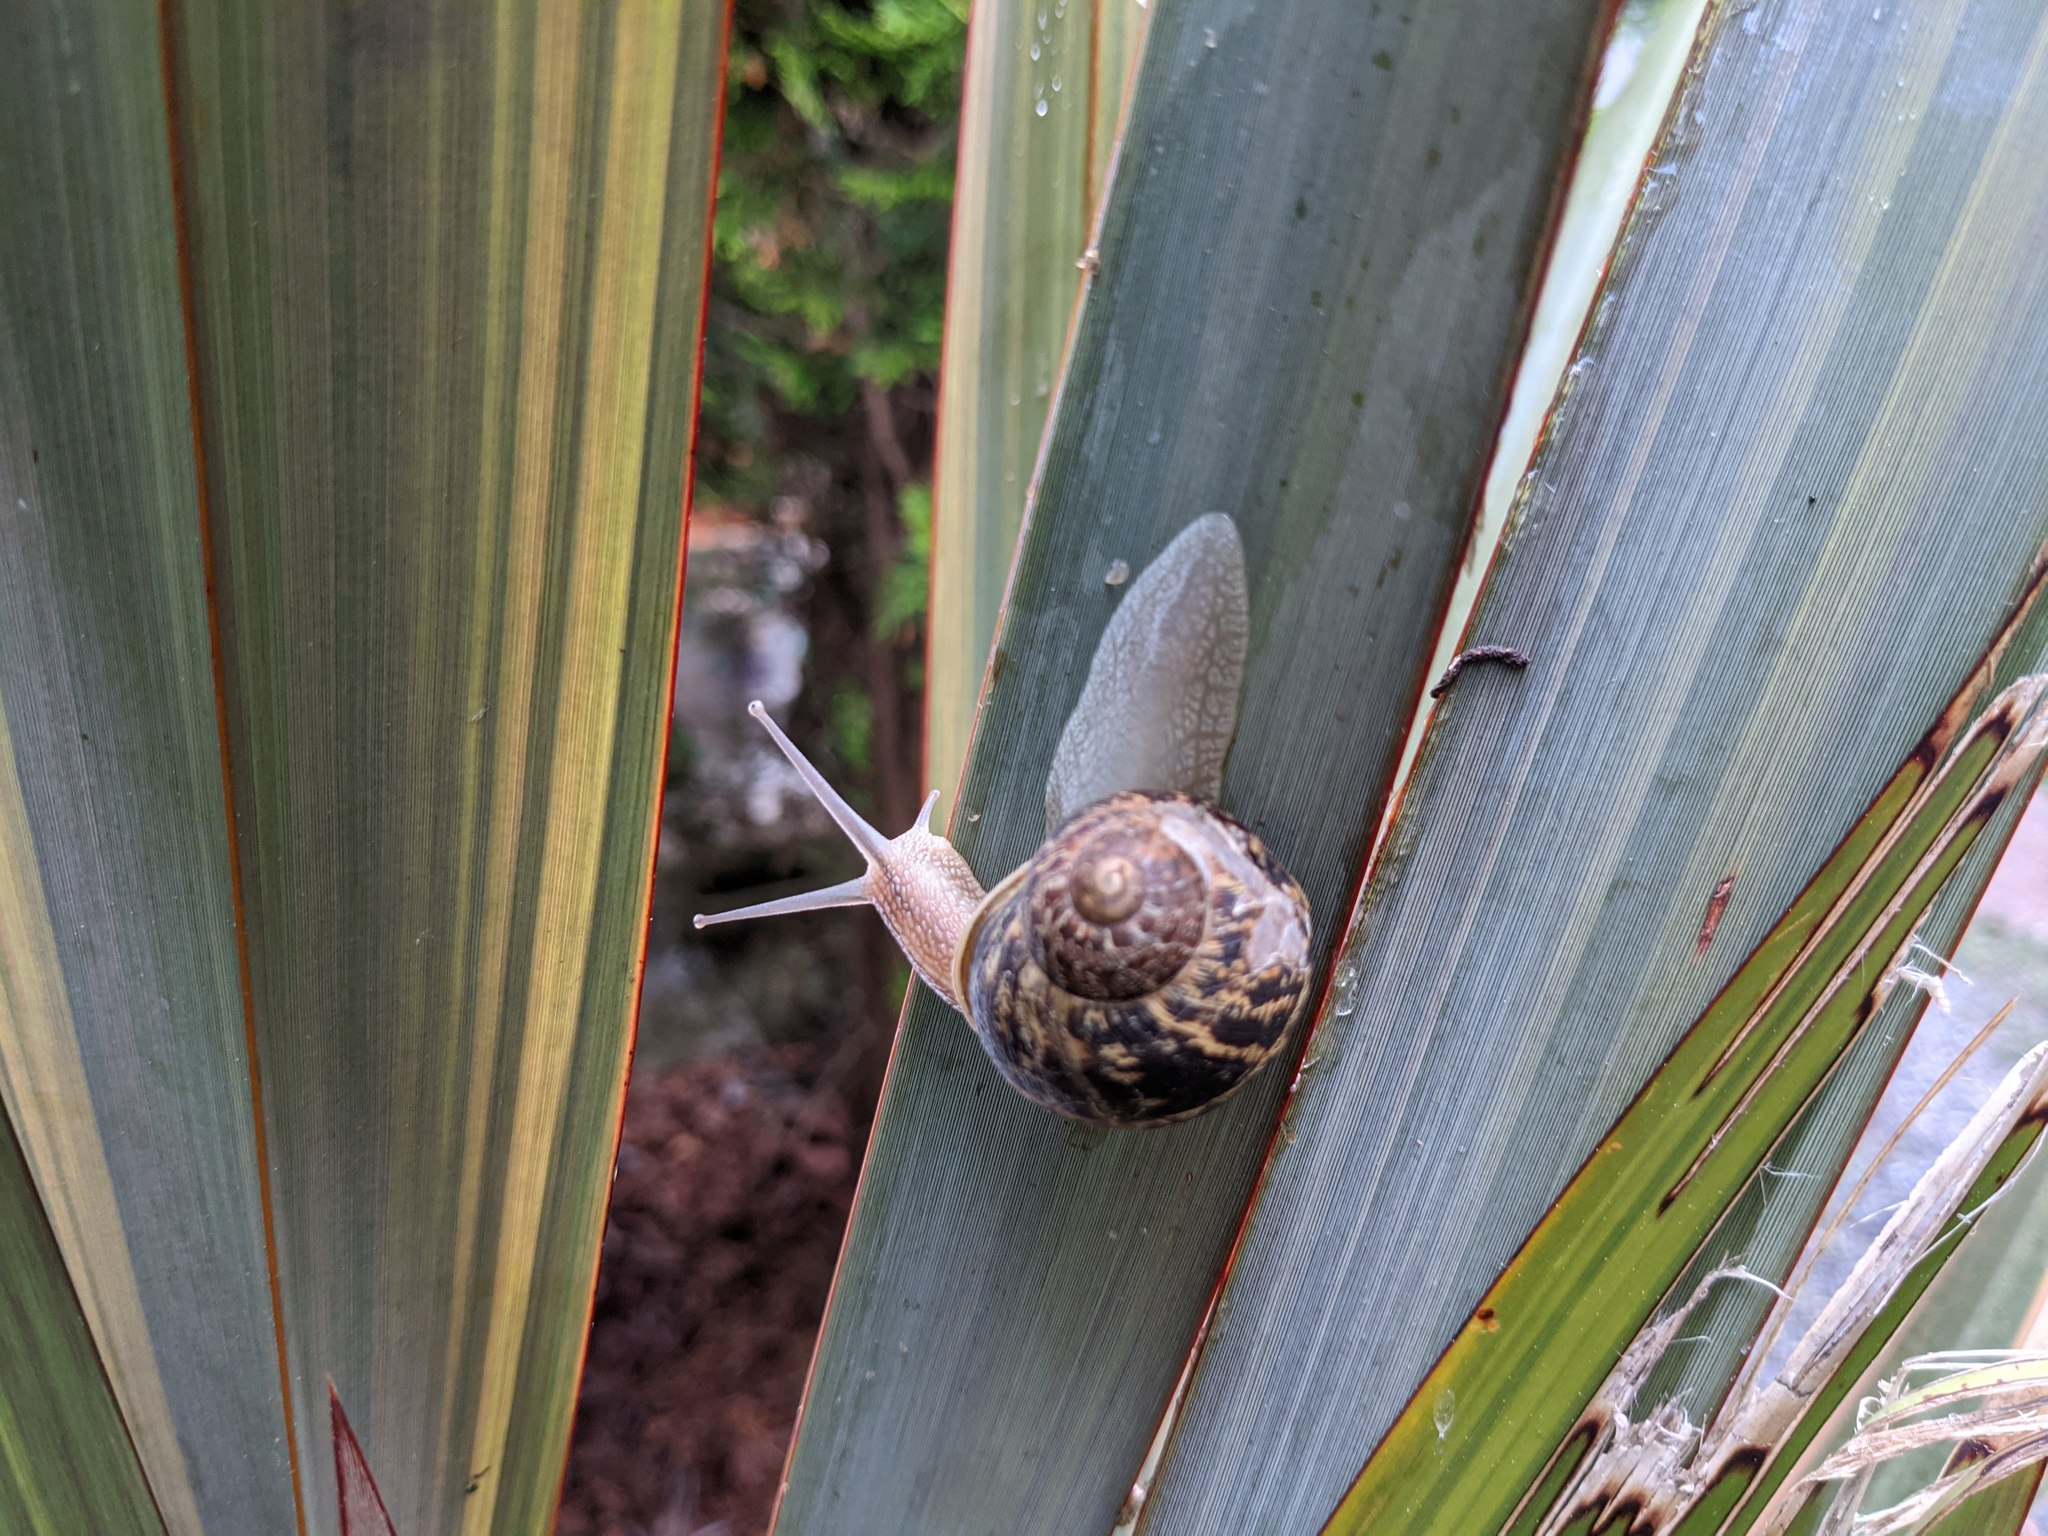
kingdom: Animalia
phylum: Mollusca
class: Gastropoda
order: Stylommatophora
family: Helicidae
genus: Cornu
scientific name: Cornu aspersum
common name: Brown garden snail
